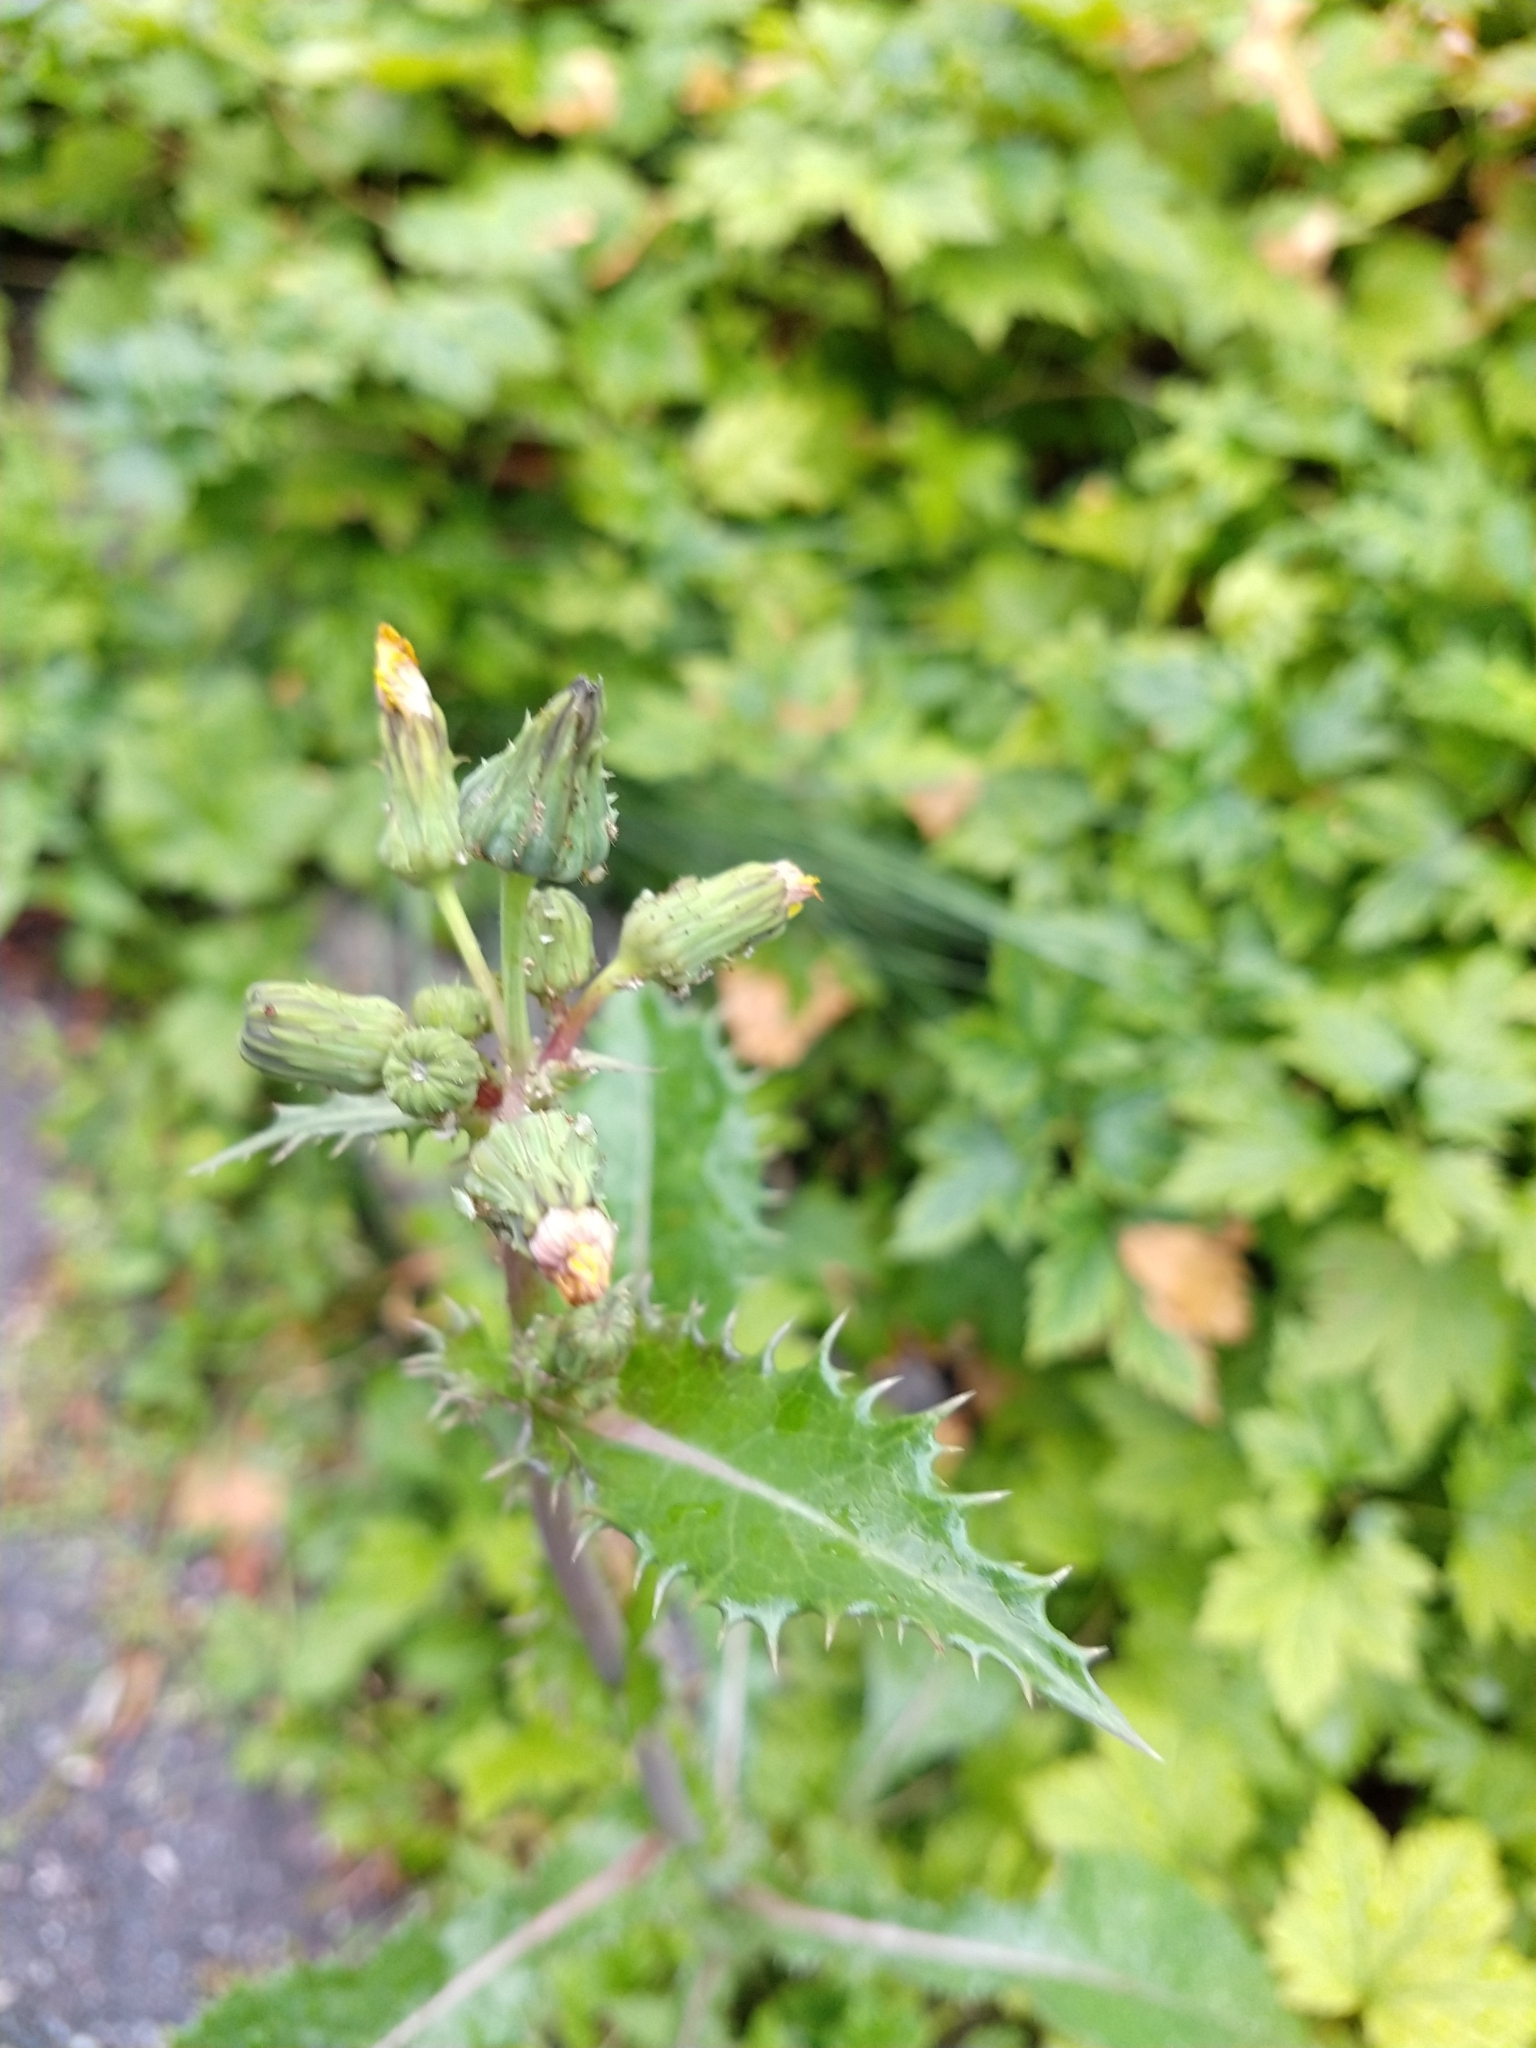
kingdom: Plantae
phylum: Tracheophyta
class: Magnoliopsida
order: Asterales
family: Asteraceae
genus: Sonchus
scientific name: Sonchus asper
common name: Prickly sow-thistle
